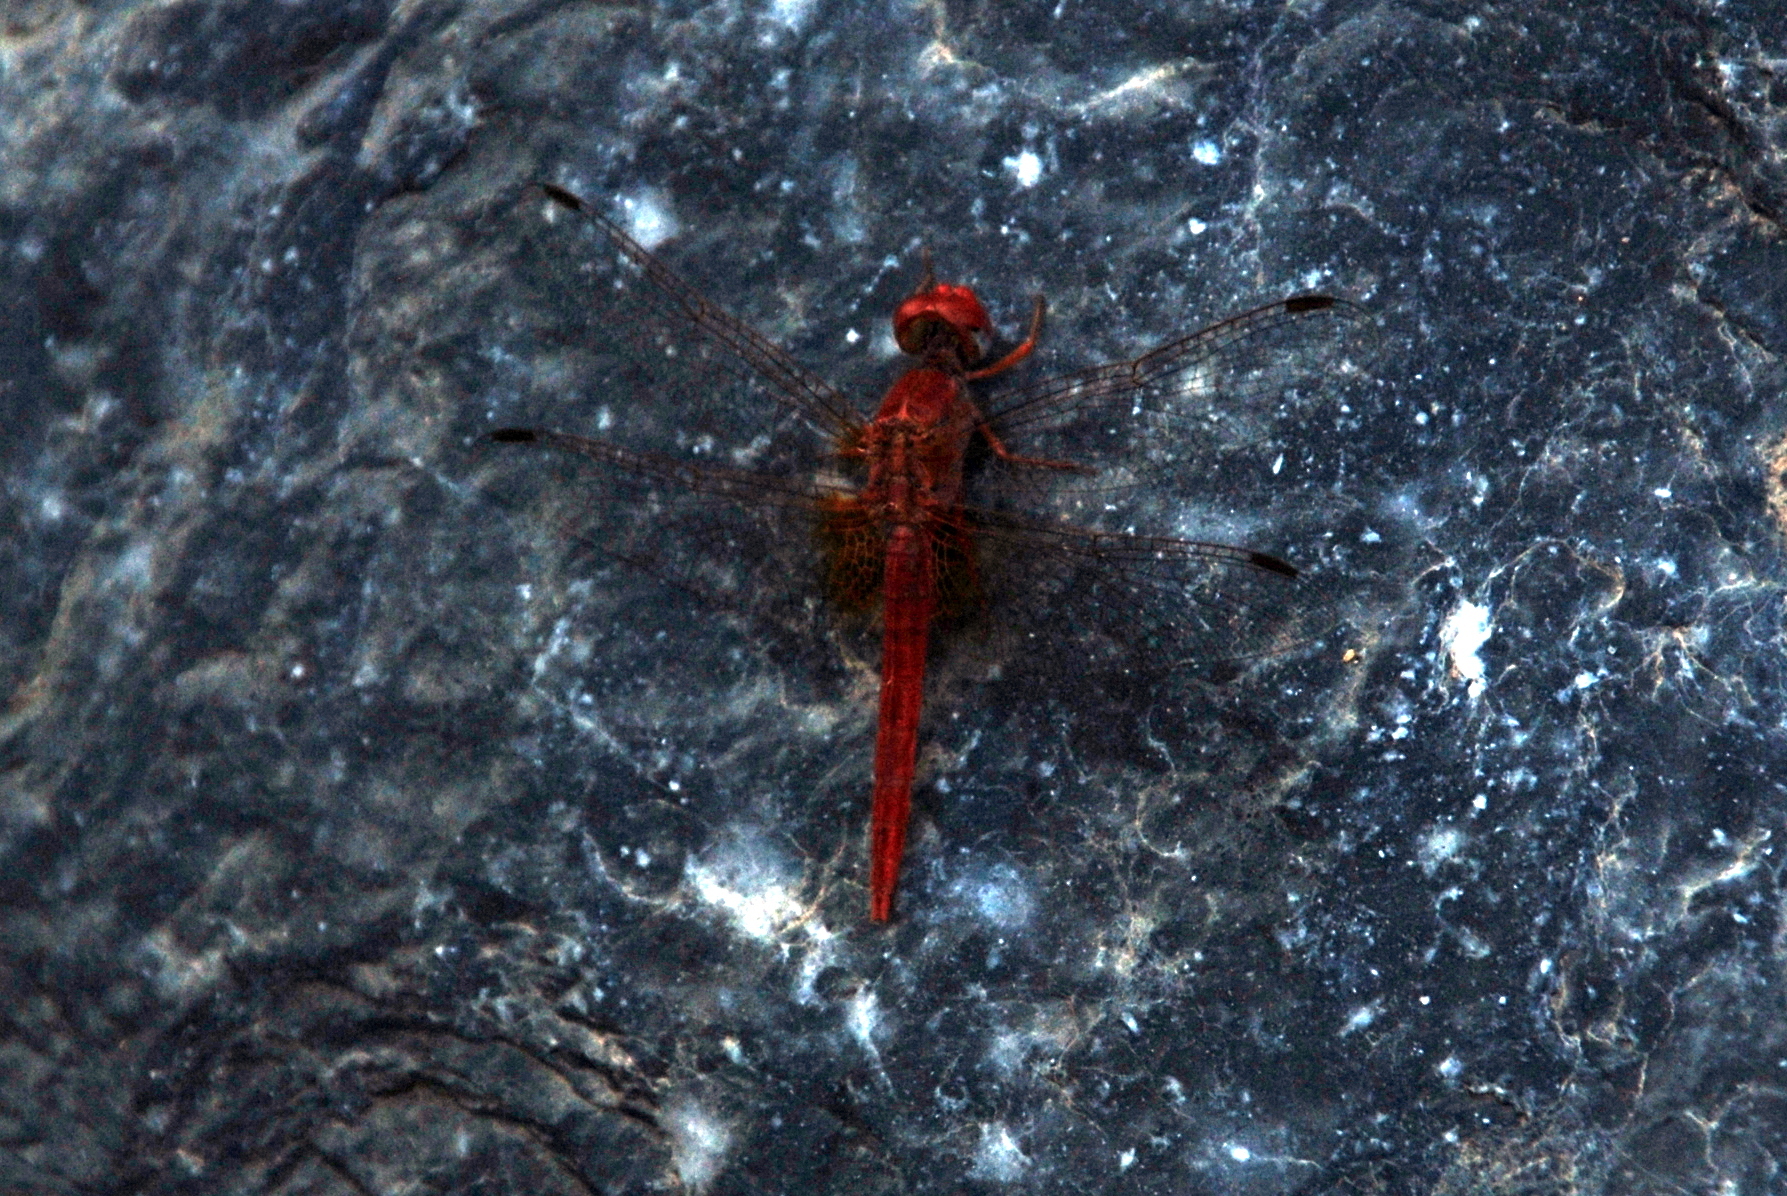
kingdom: Animalia
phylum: Arthropoda
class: Insecta
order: Odonata
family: Libellulidae
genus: Crocothemis
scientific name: Crocothemis erythraea
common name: Scarlet dragonfly
